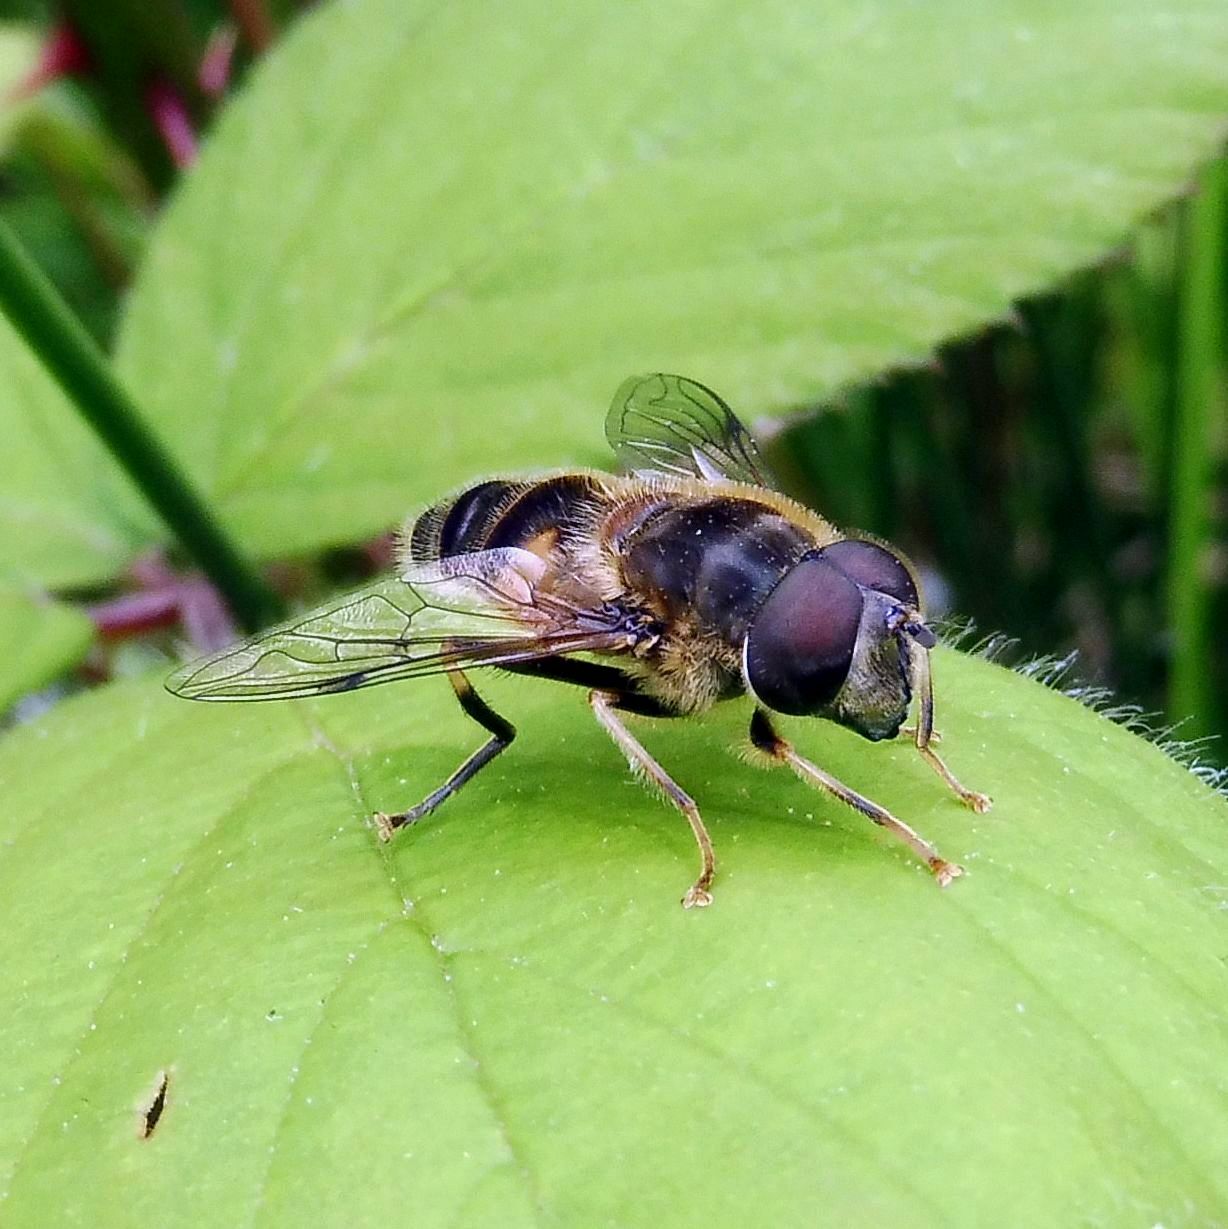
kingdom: Animalia
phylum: Arthropoda
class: Insecta
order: Diptera
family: Syrphidae
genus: Eristalis
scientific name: Eristalis pertinax
